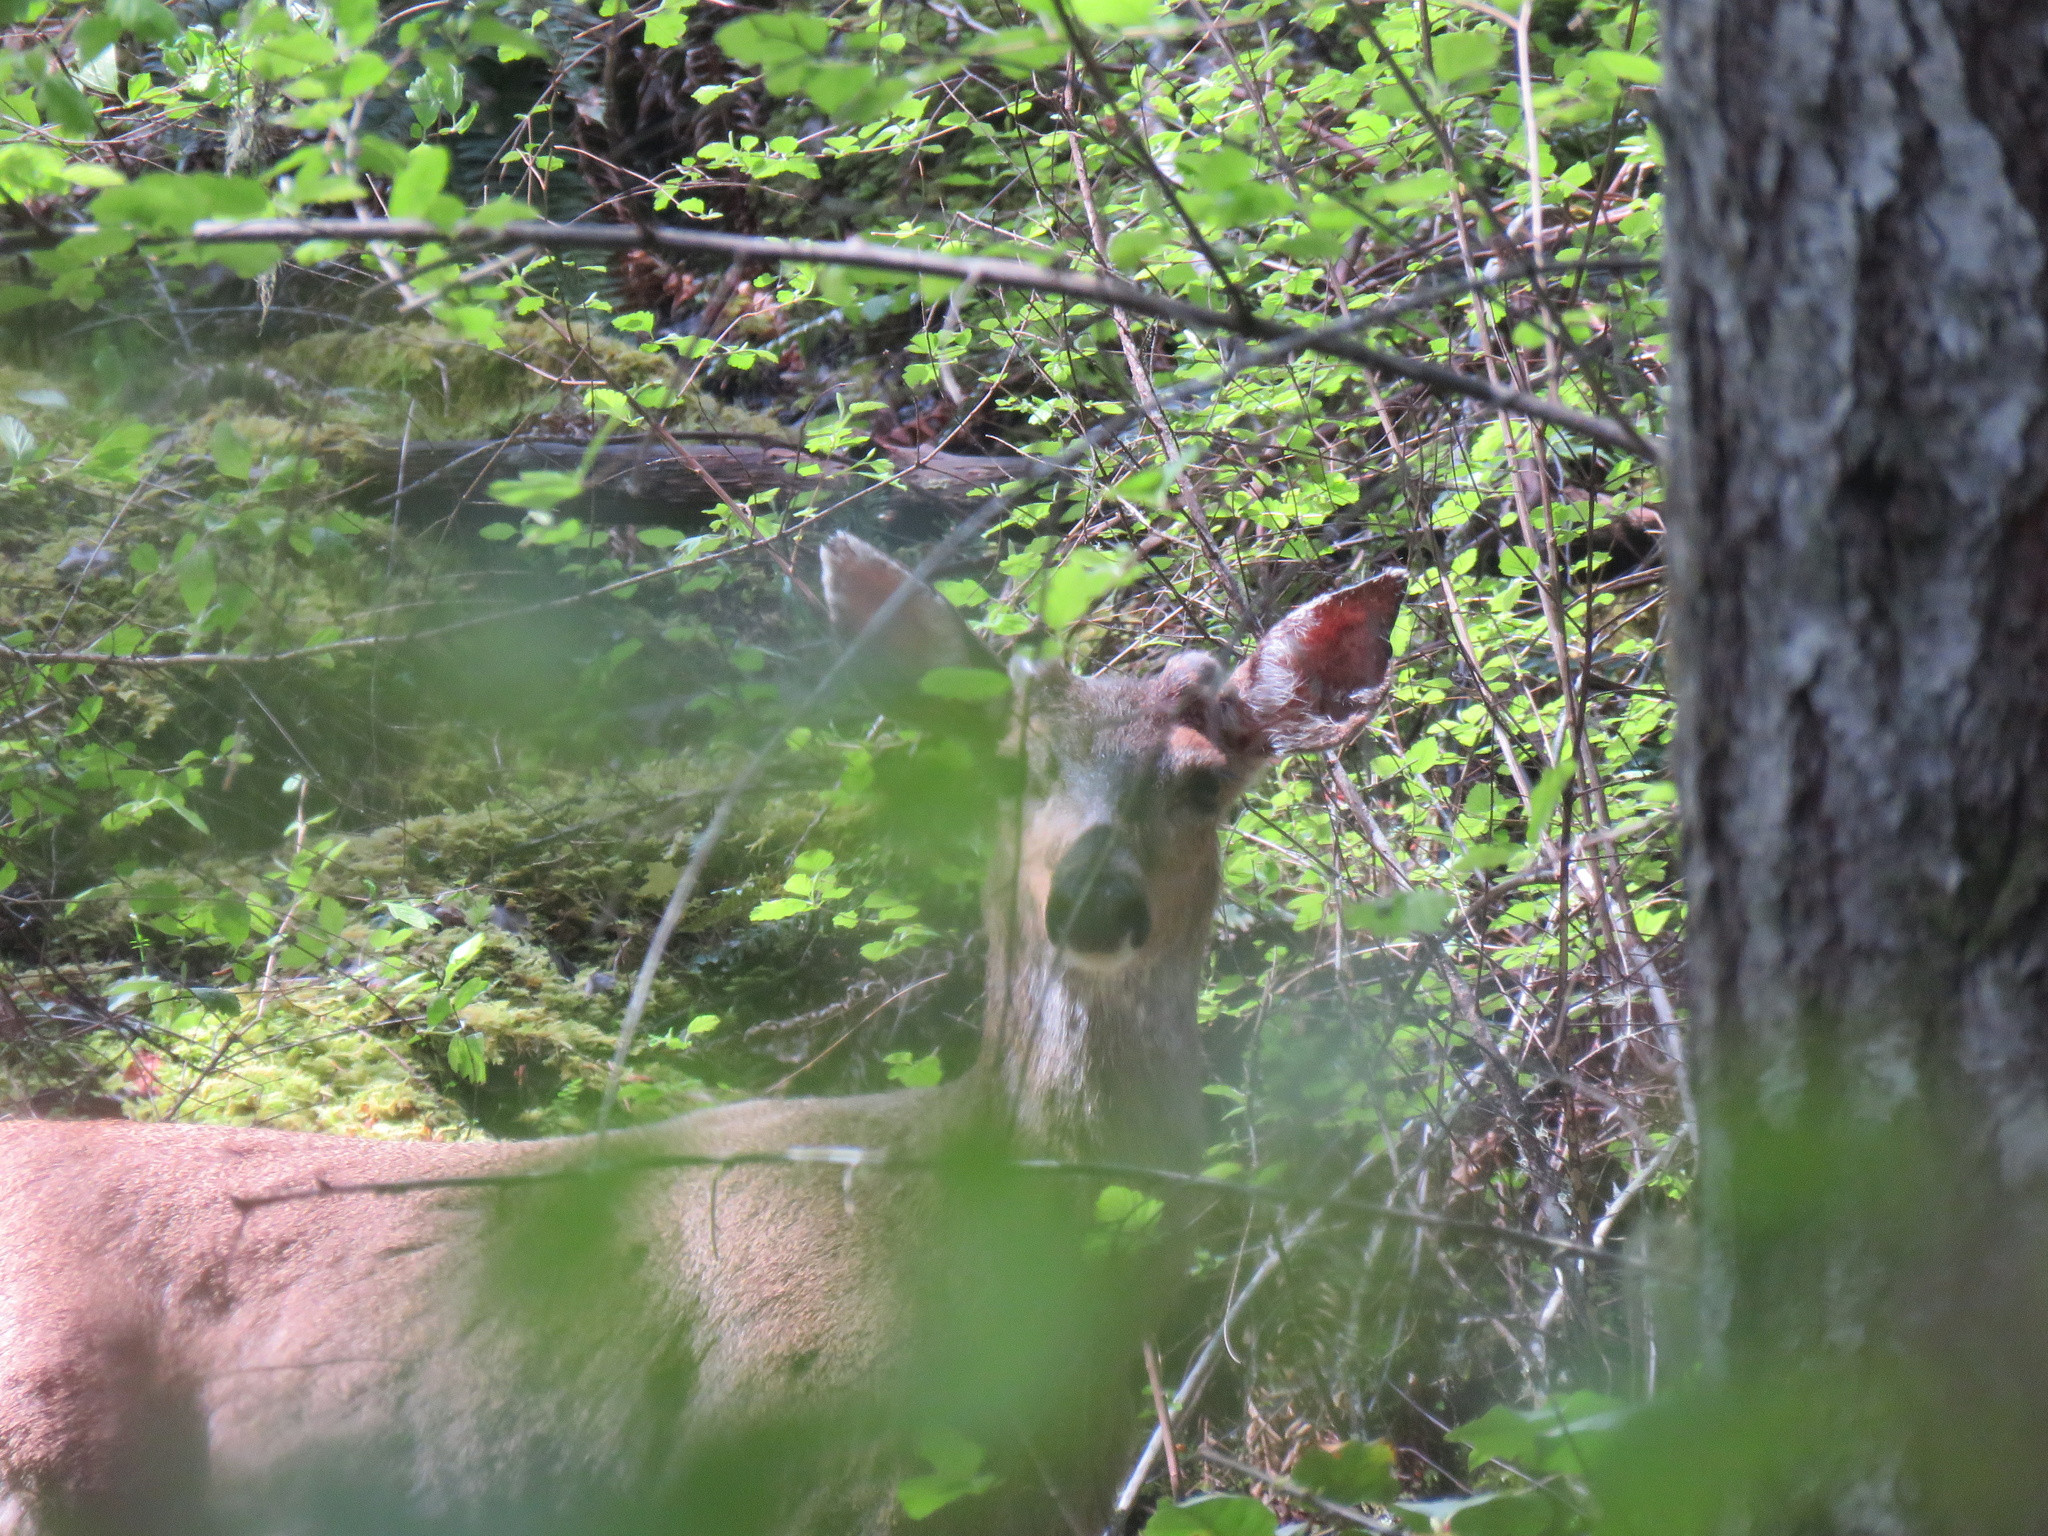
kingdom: Animalia
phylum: Chordata
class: Mammalia
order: Artiodactyla
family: Cervidae
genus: Odocoileus
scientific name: Odocoileus hemionus
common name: Mule deer
